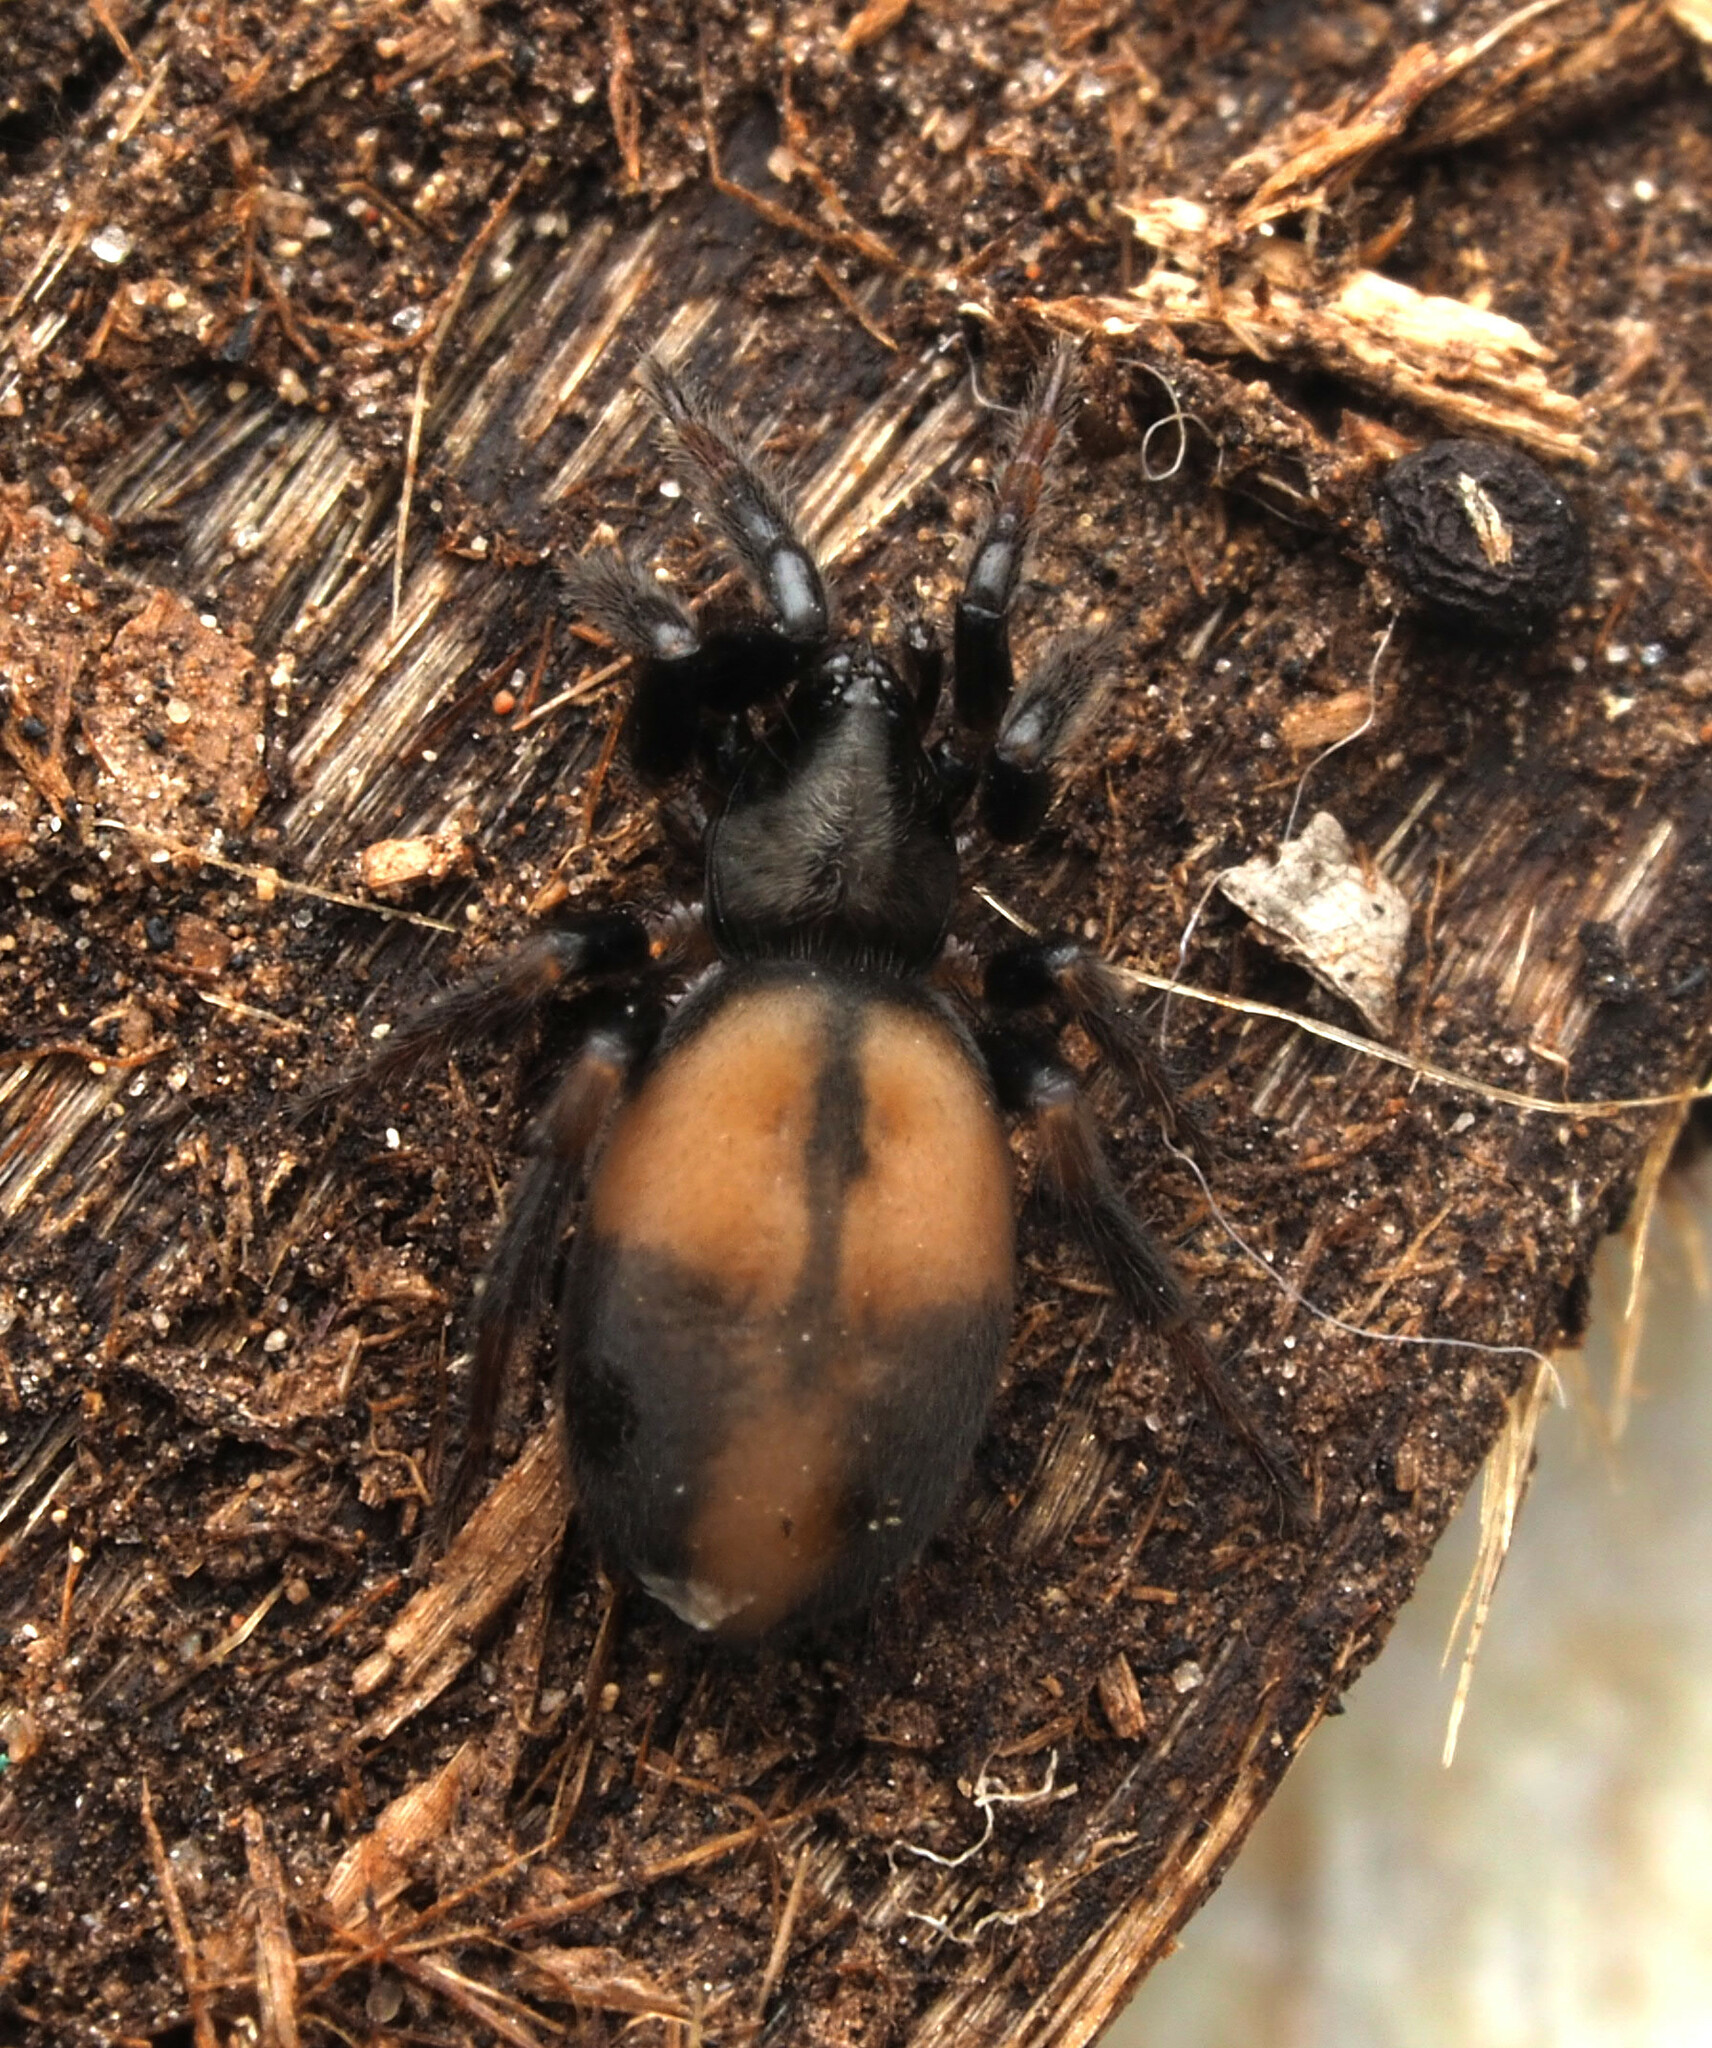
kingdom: Animalia
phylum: Arthropoda
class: Arachnida
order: Araneae
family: Gnaphosidae
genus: Eilica
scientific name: Eilica albopunctata
